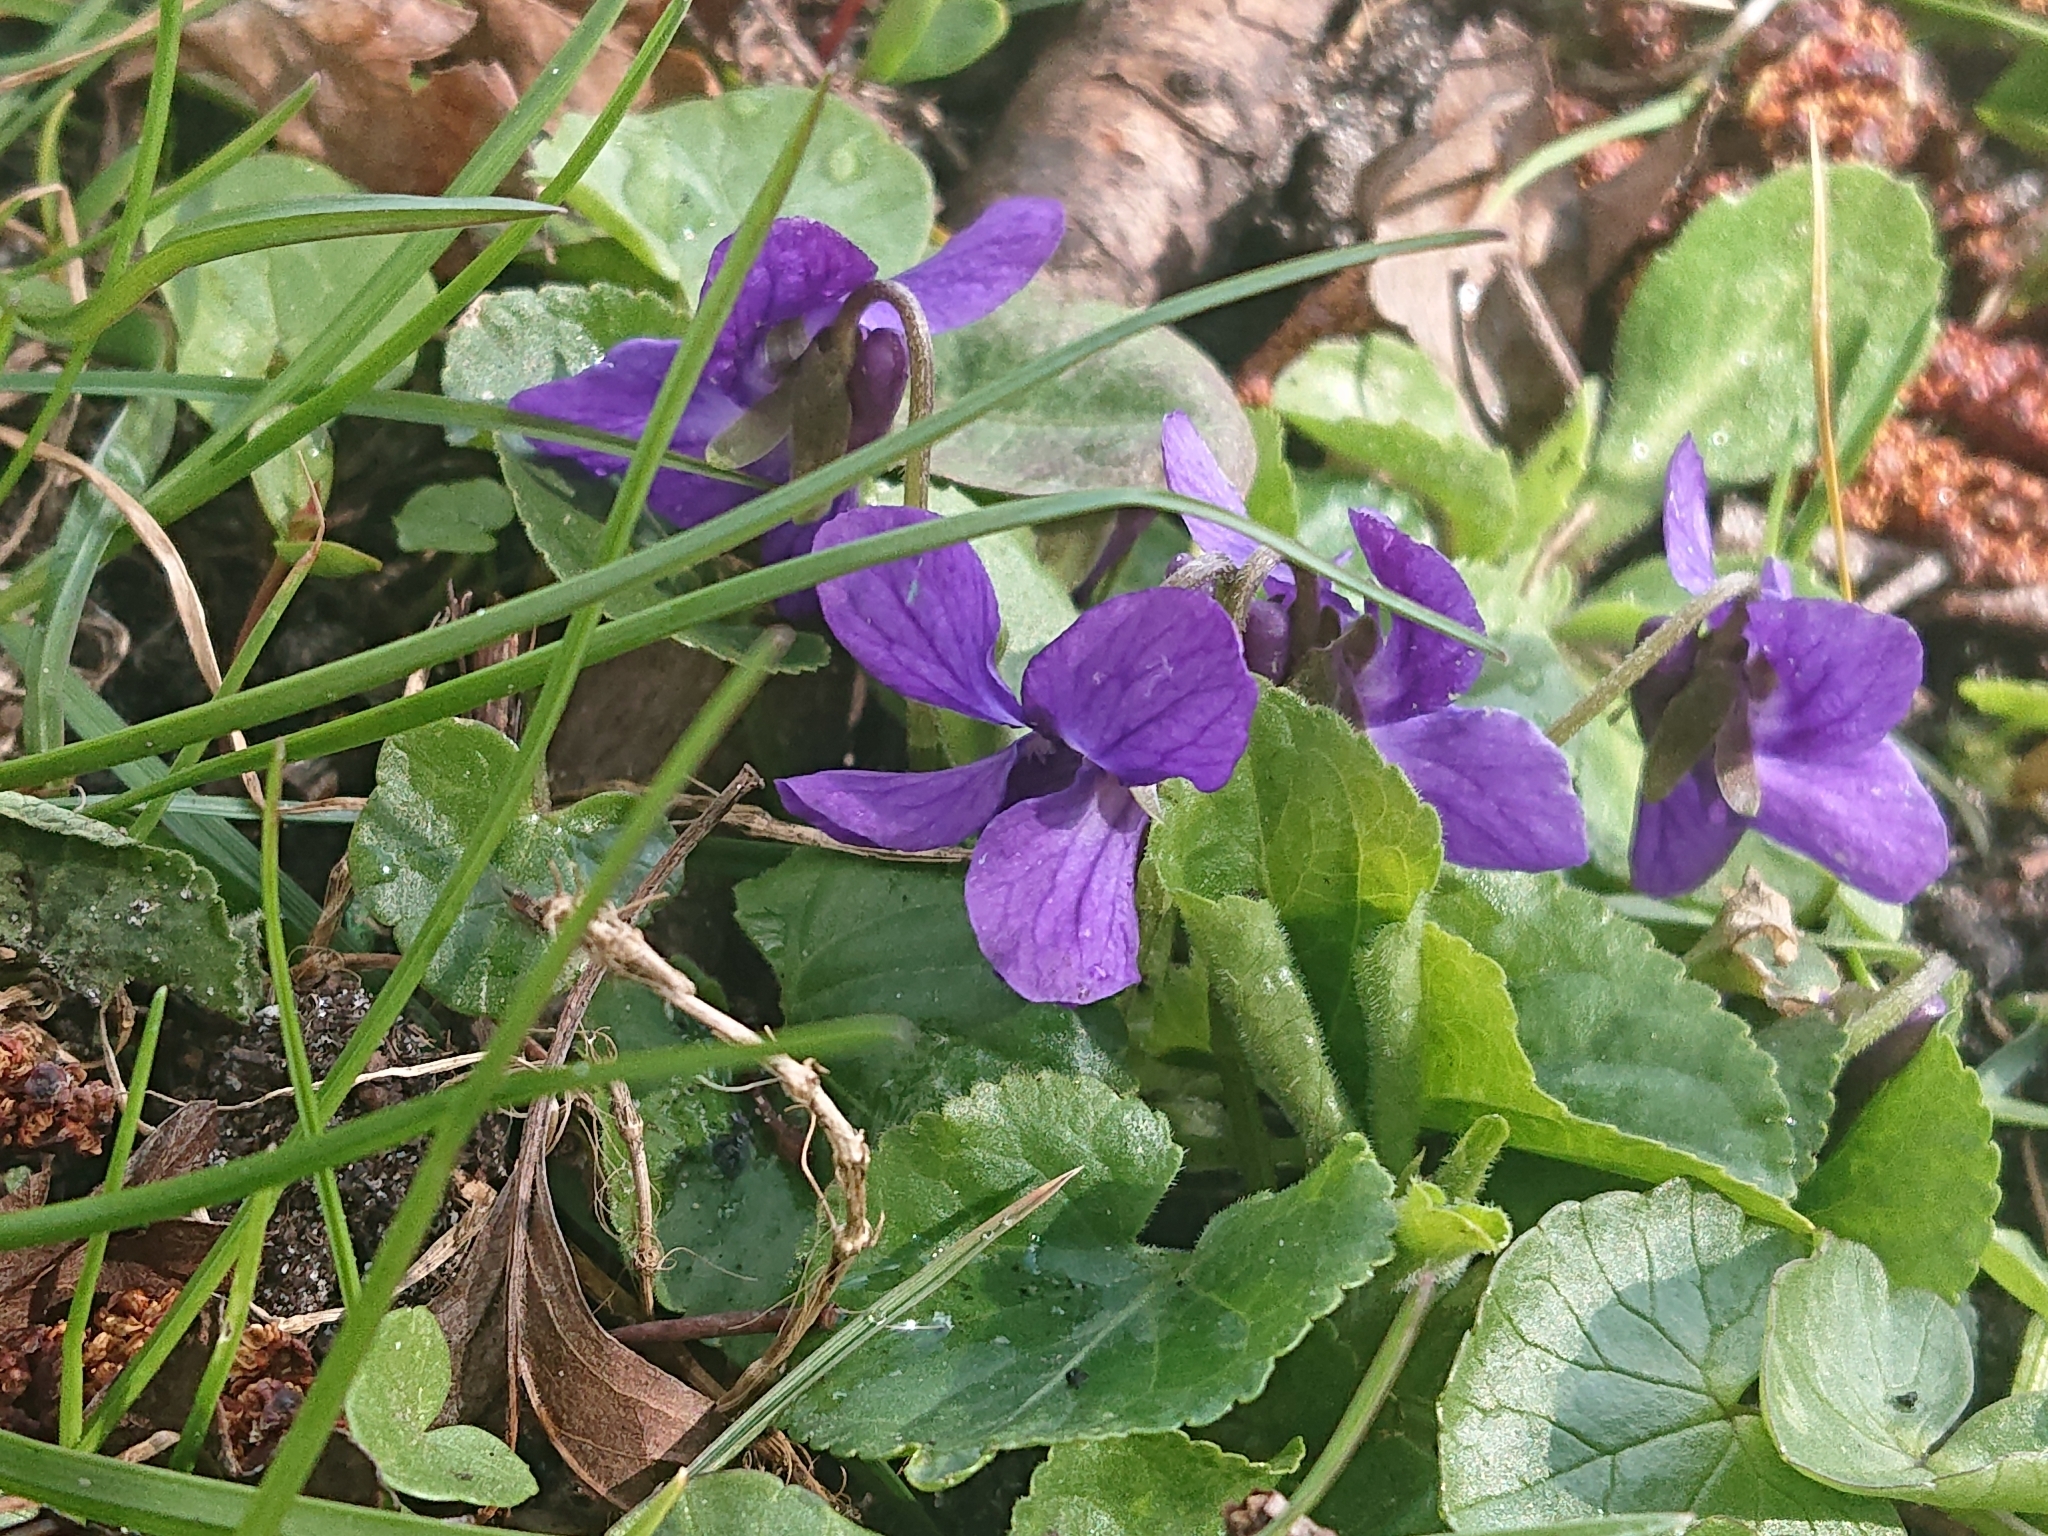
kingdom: Plantae
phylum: Tracheophyta
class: Magnoliopsida
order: Malpighiales
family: Violaceae
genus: Viola
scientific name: Viola odorata
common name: Sweet violet
